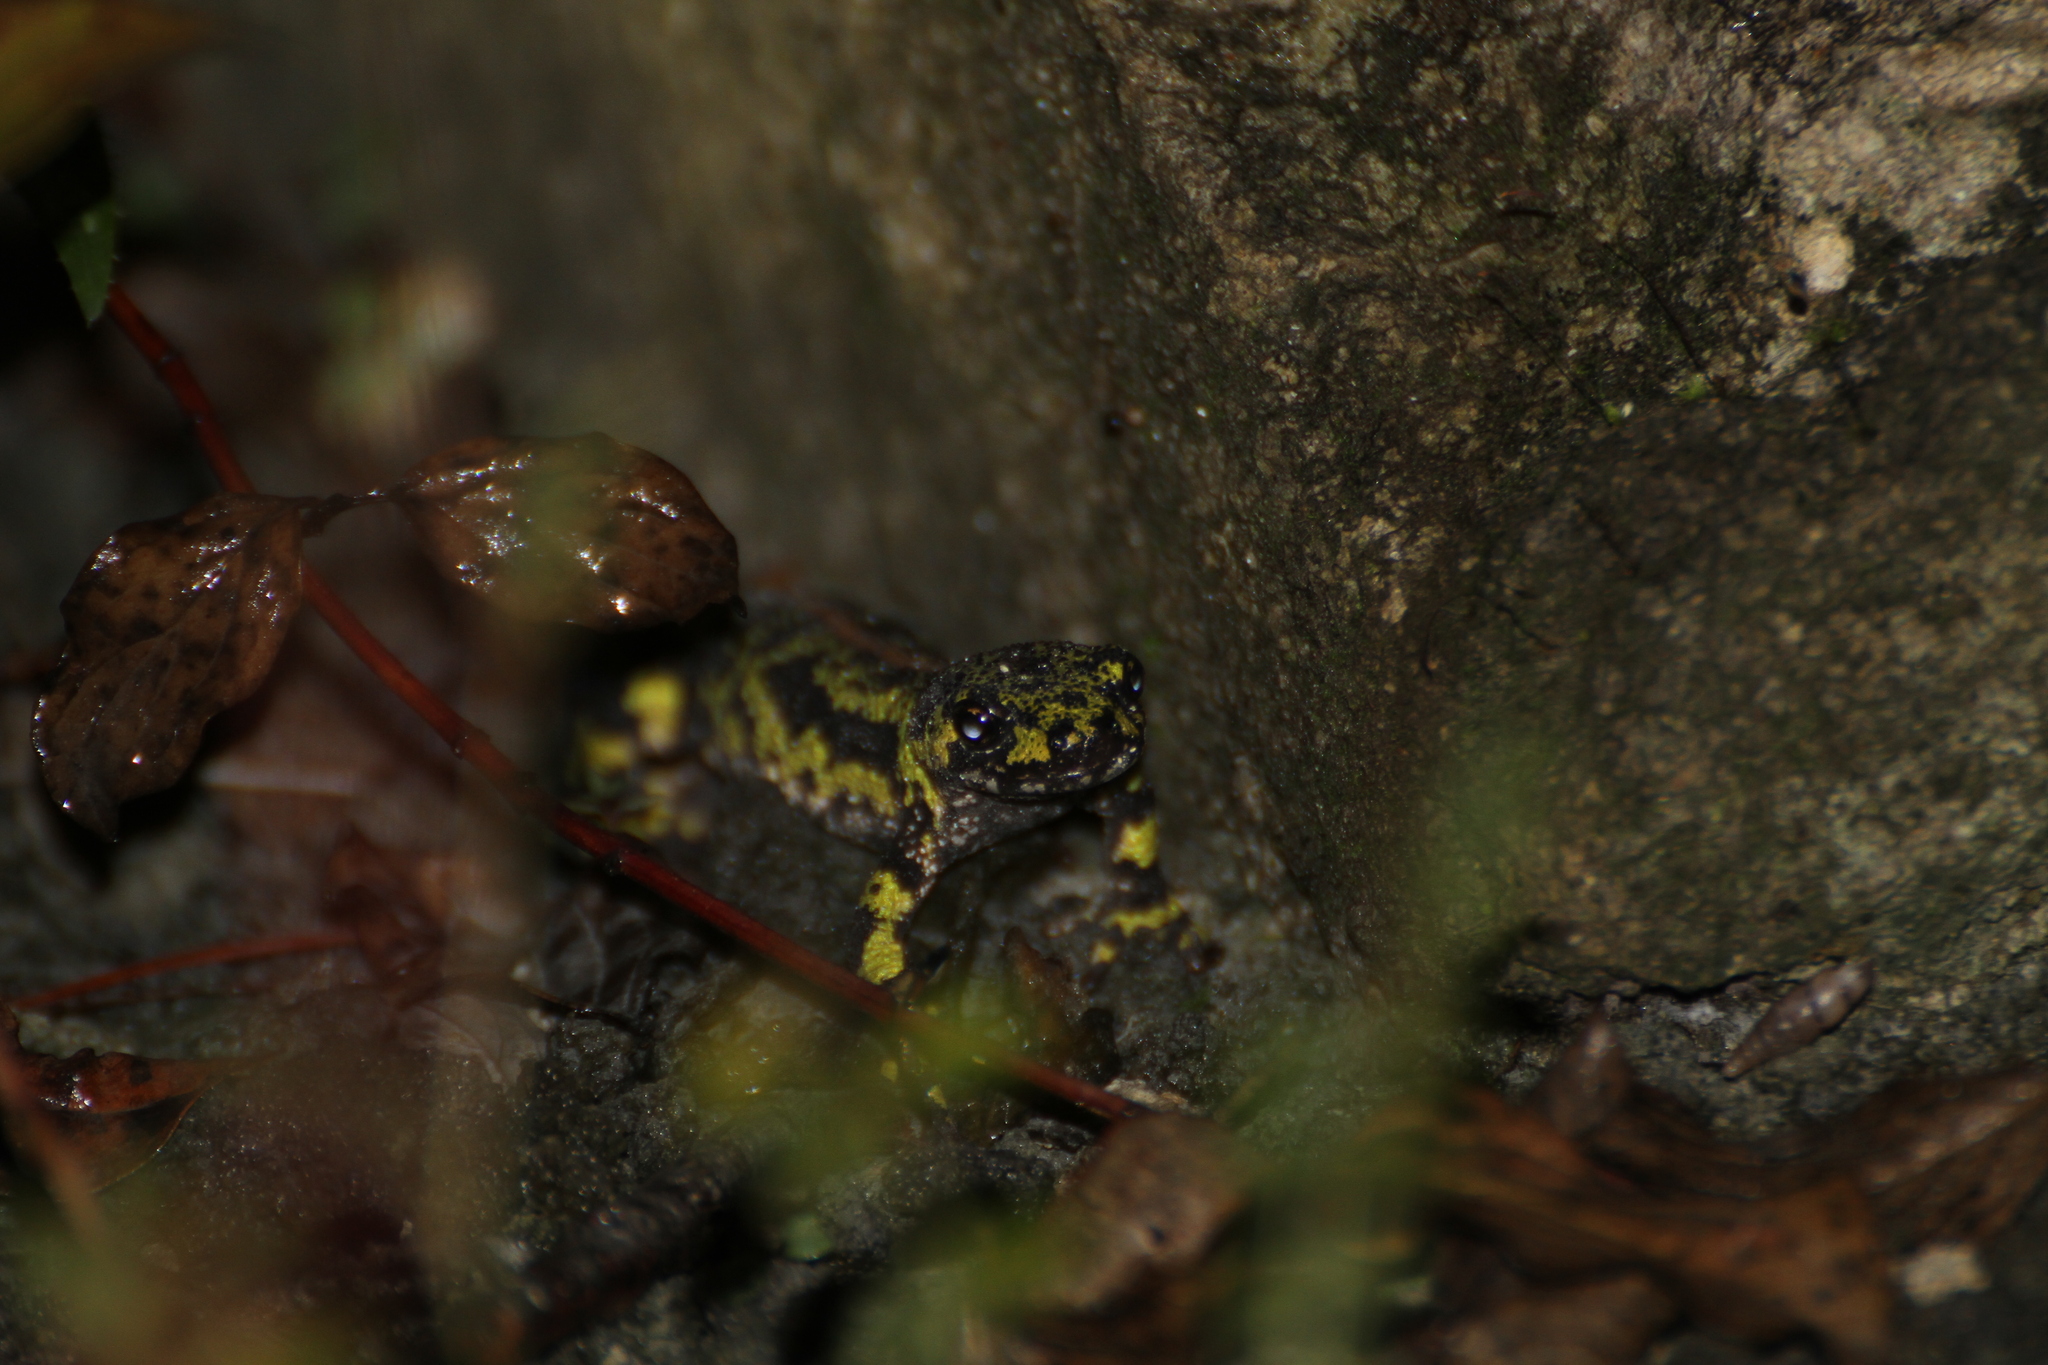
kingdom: Animalia
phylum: Chordata
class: Amphibia
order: Caudata
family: Salamandridae
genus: Triturus
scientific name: Triturus marmoratus
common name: Marbled newt
